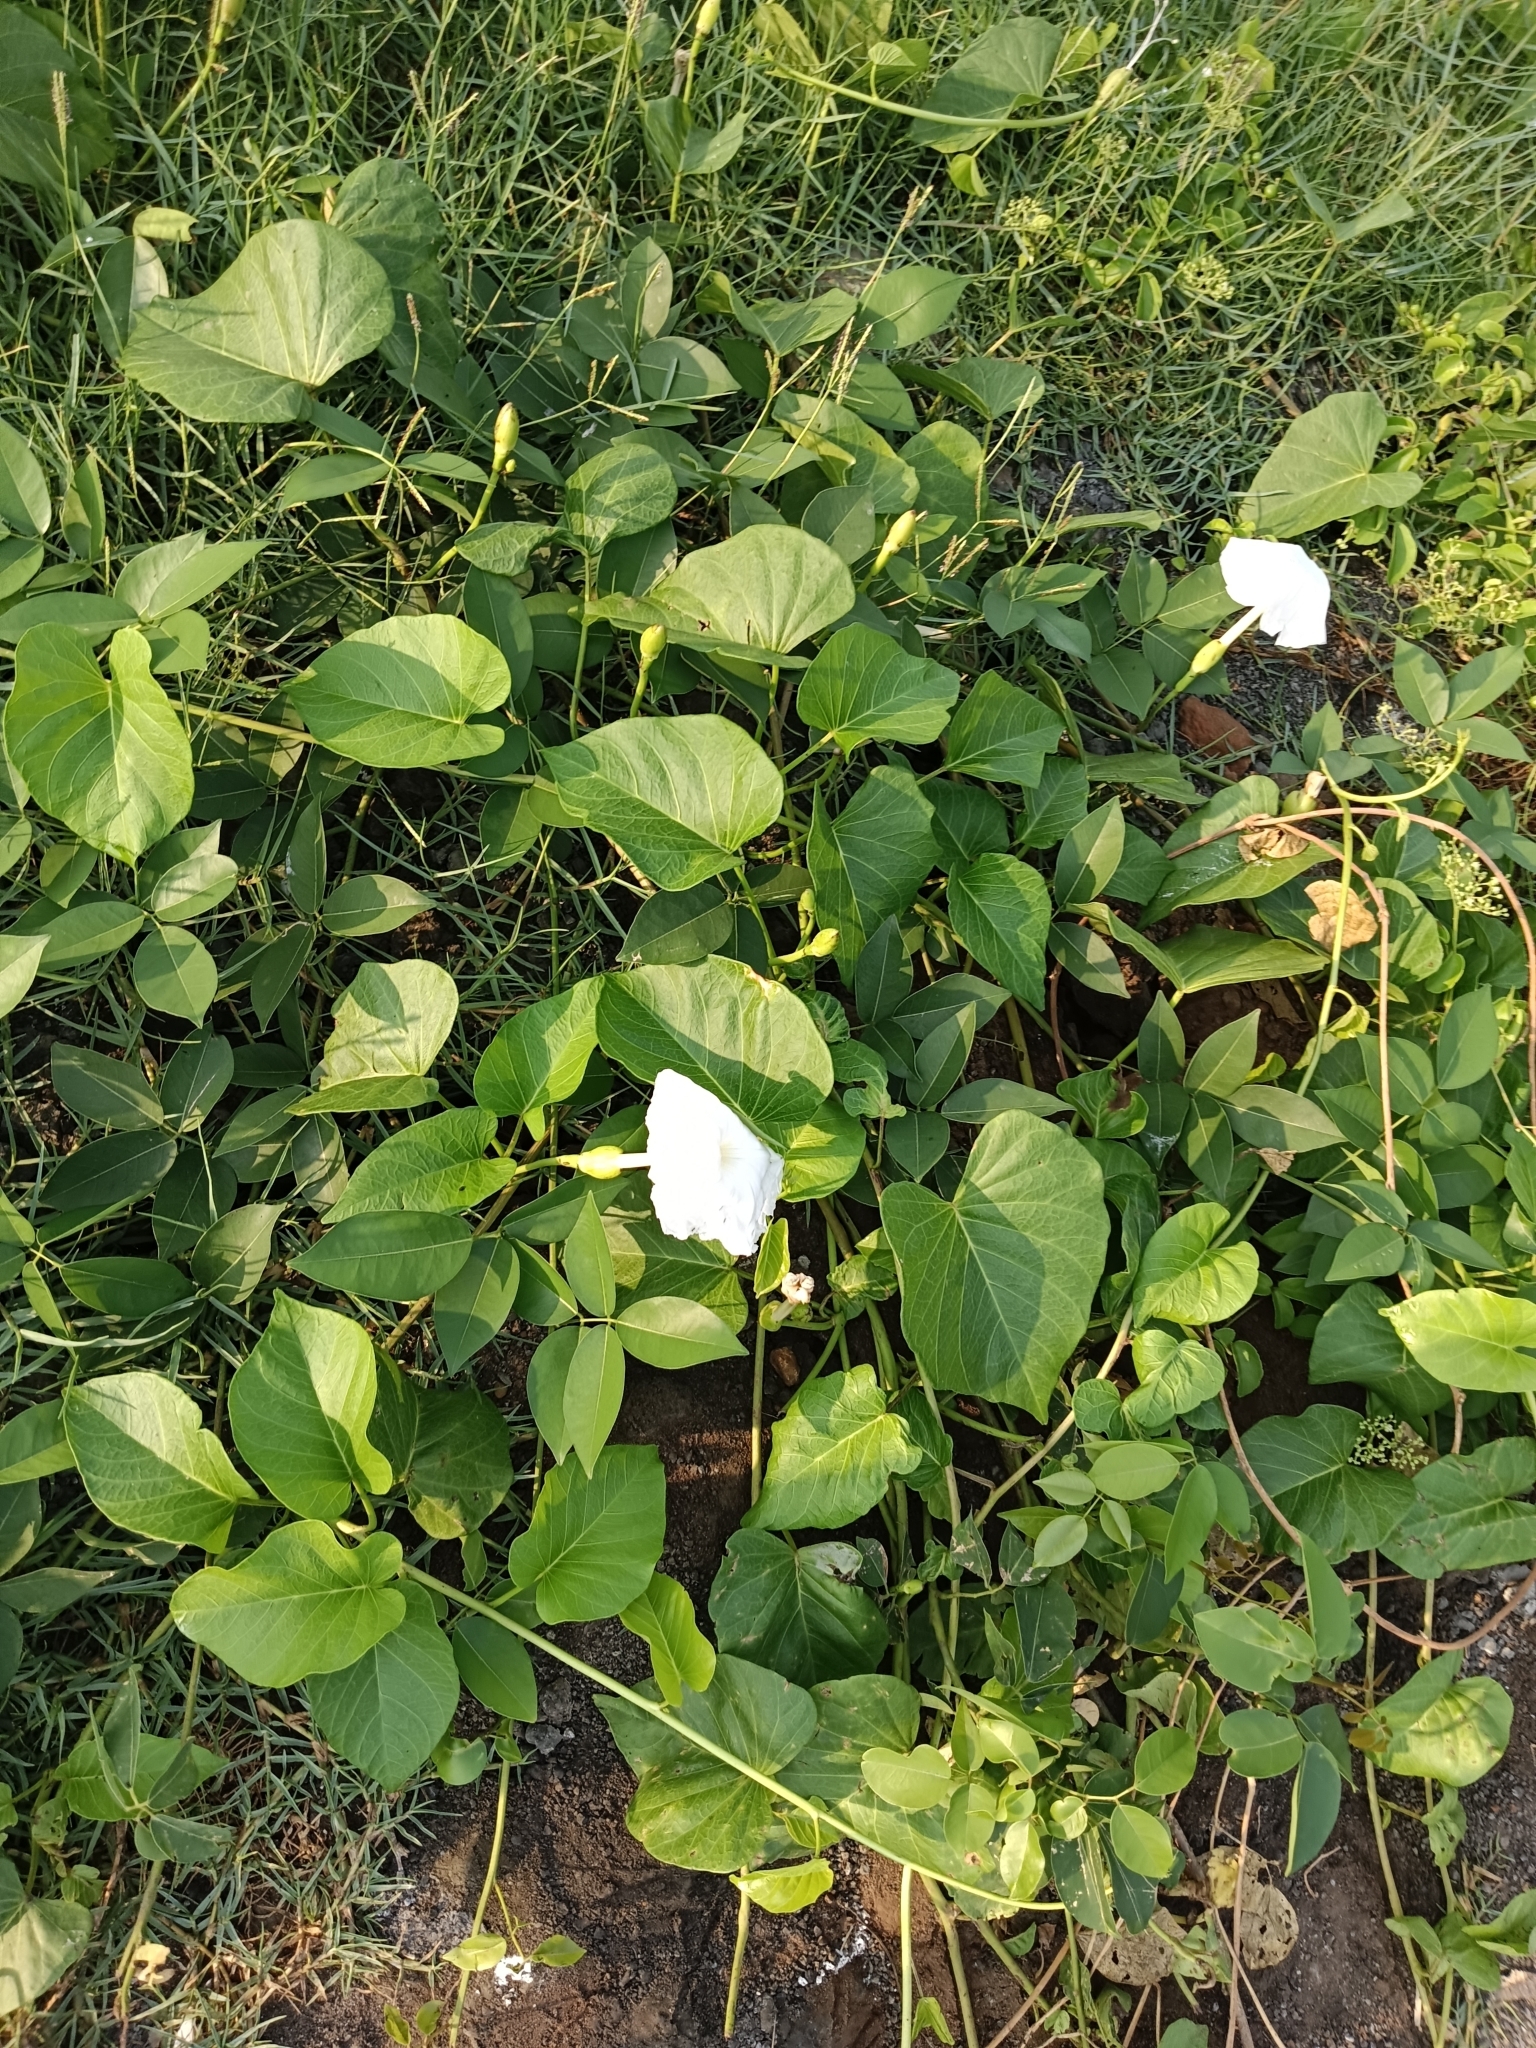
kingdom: Plantae
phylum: Tracheophyta
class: Magnoliopsida
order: Solanales
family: Convolvulaceae
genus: Ipomoea
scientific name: Ipomoea violacea
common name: Beach moonflower
